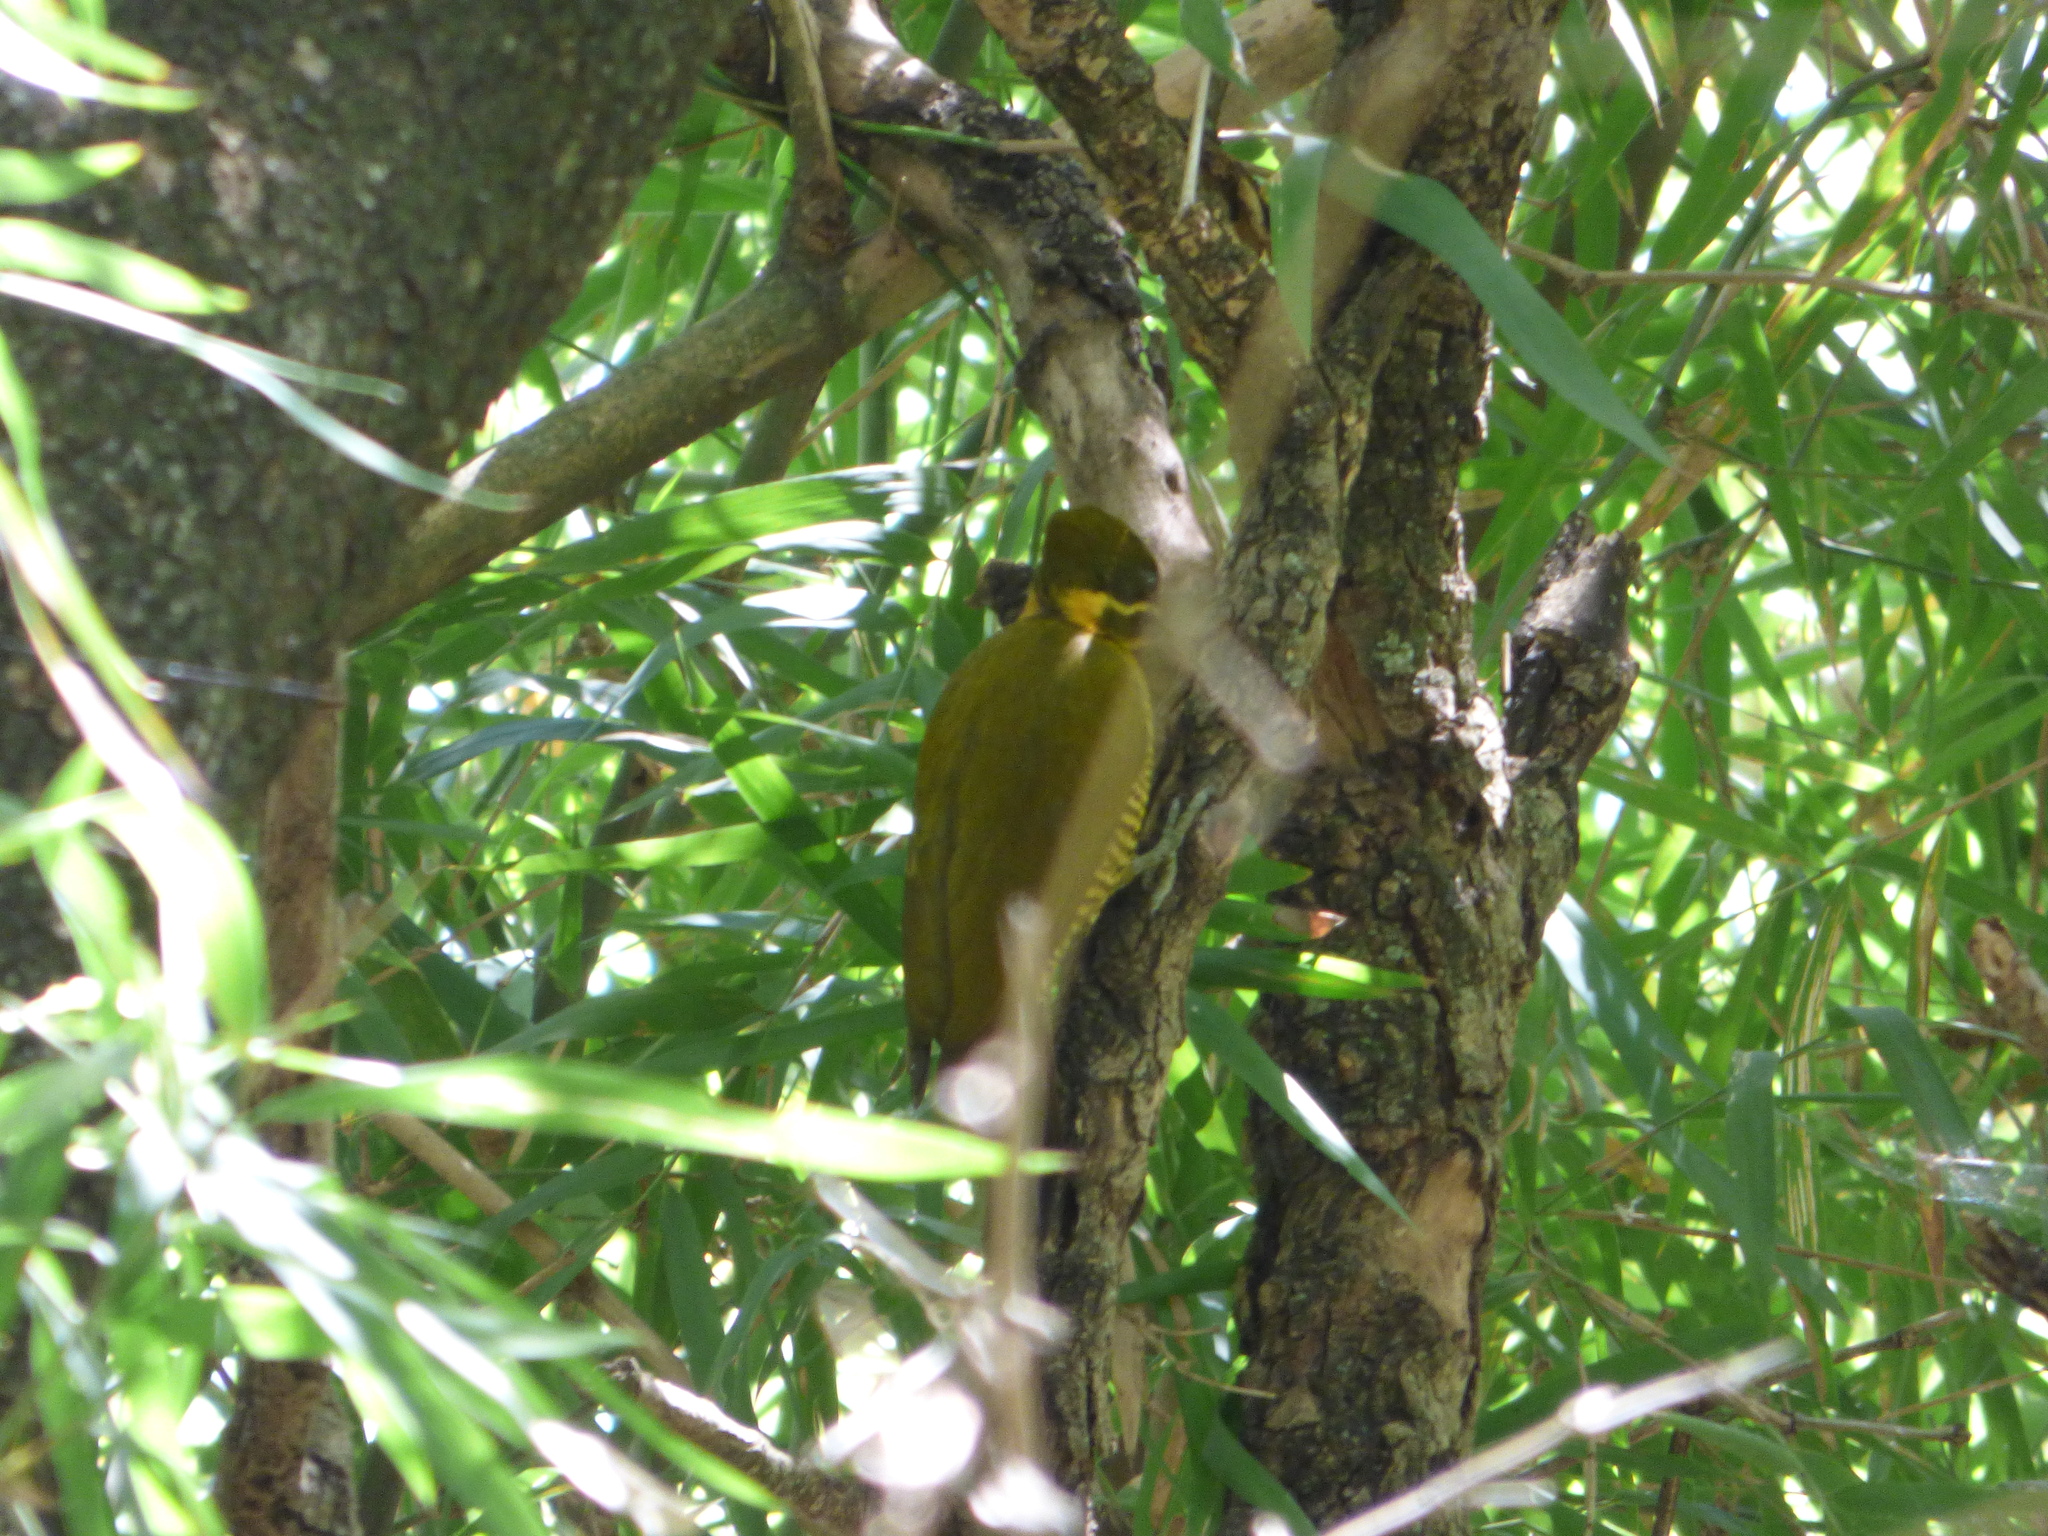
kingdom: Animalia
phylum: Chordata
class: Aves
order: Piciformes
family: Picidae
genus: Piculus
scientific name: Piculus chrysochloros
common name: Golden-green woodpecker
